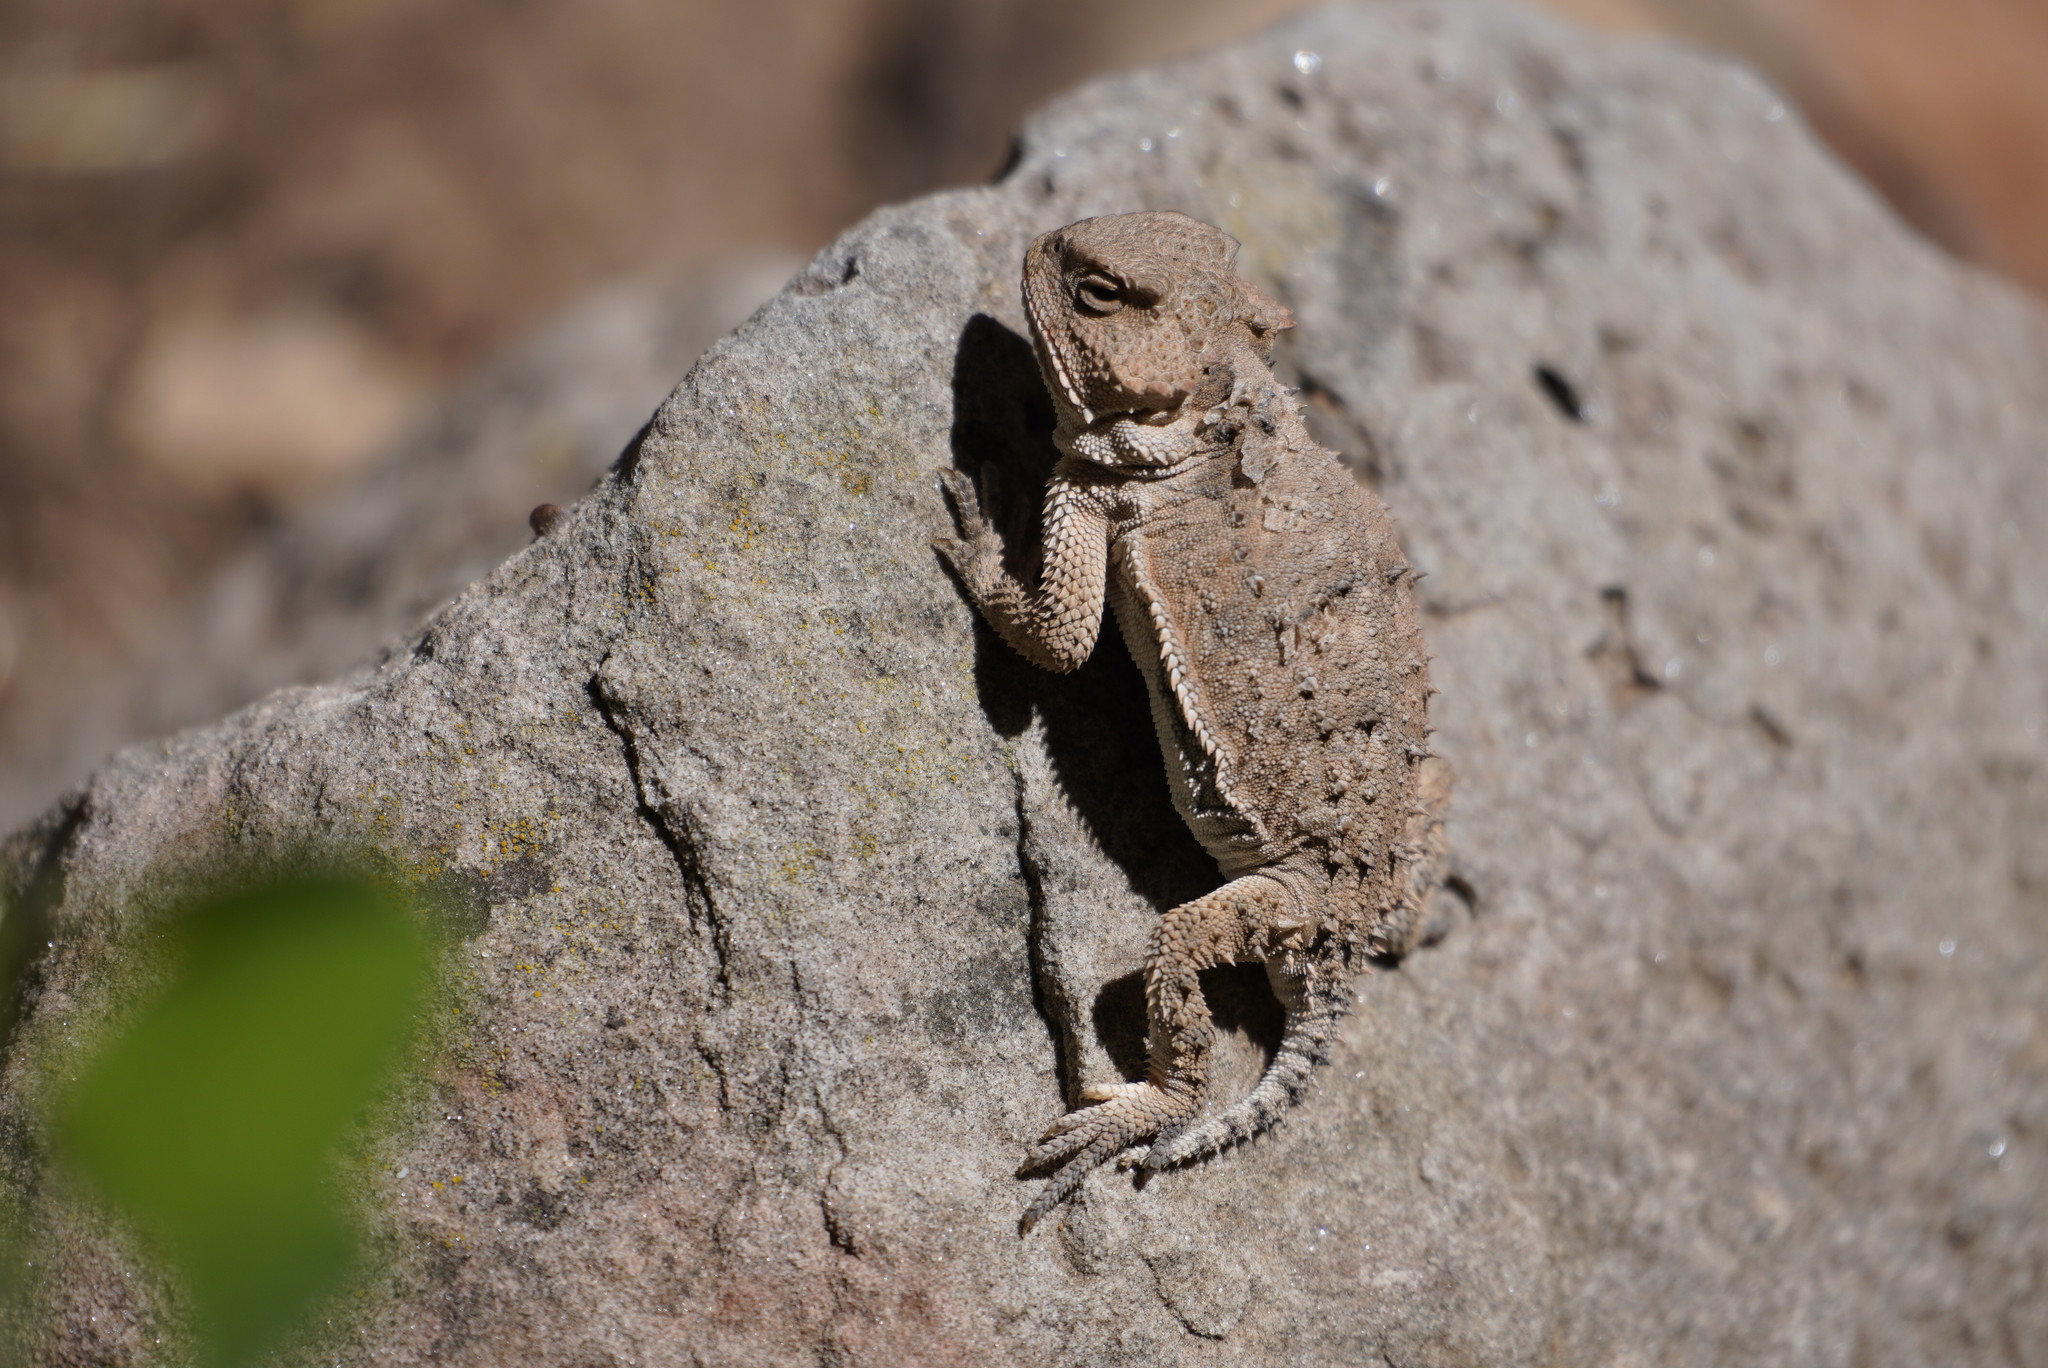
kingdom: Animalia
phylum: Chordata
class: Squamata
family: Phrynosomatidae
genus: Phrynosoma
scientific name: Phrynosoma hernandesi
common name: Greater short-horned lizard
